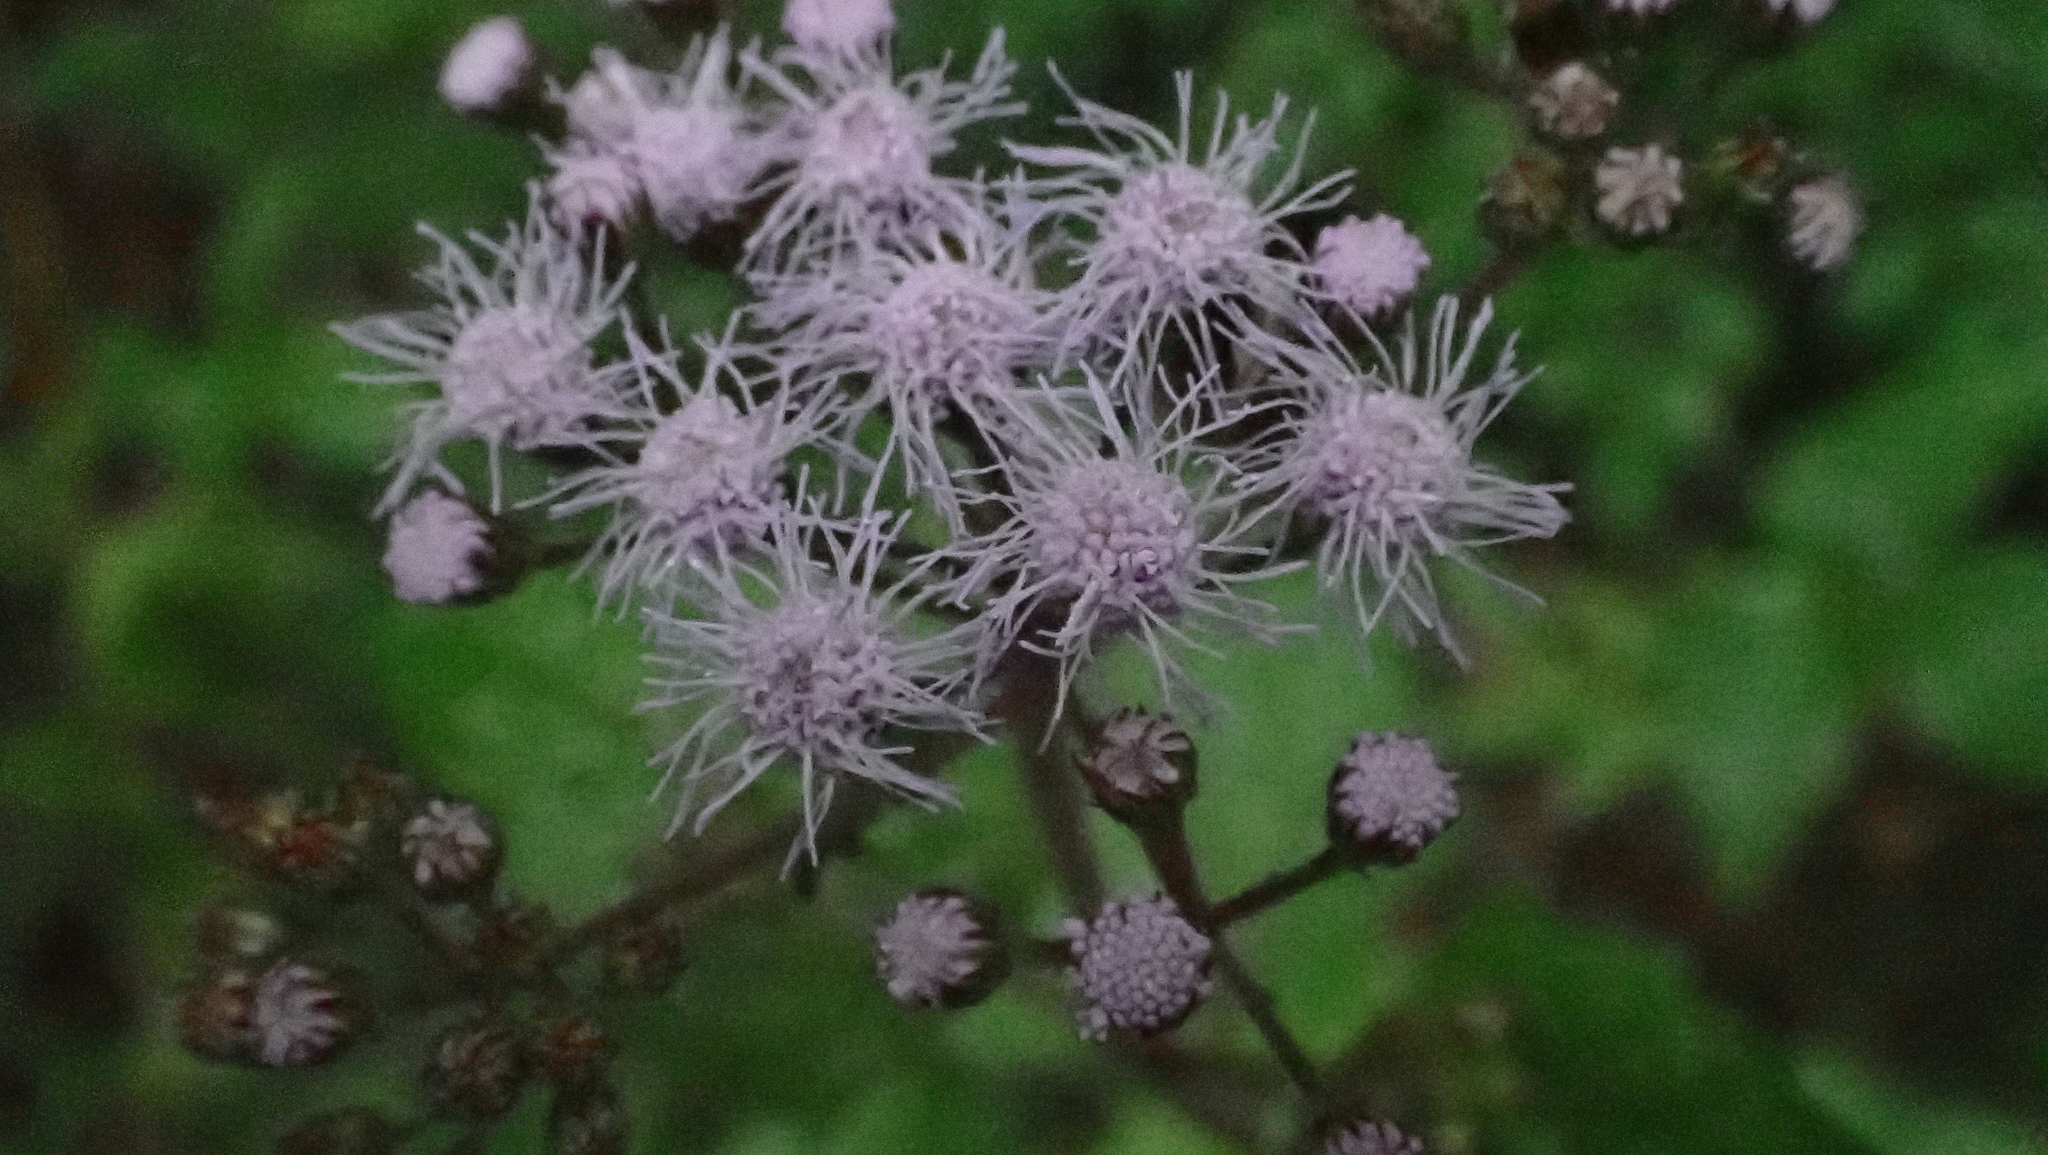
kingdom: Plantae
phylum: Tracheophyta
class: Magnoliopsida
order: Asterales
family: Asteraceae
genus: Conoclinium
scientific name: Conoclinium coelestinum
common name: Blue mistflower
